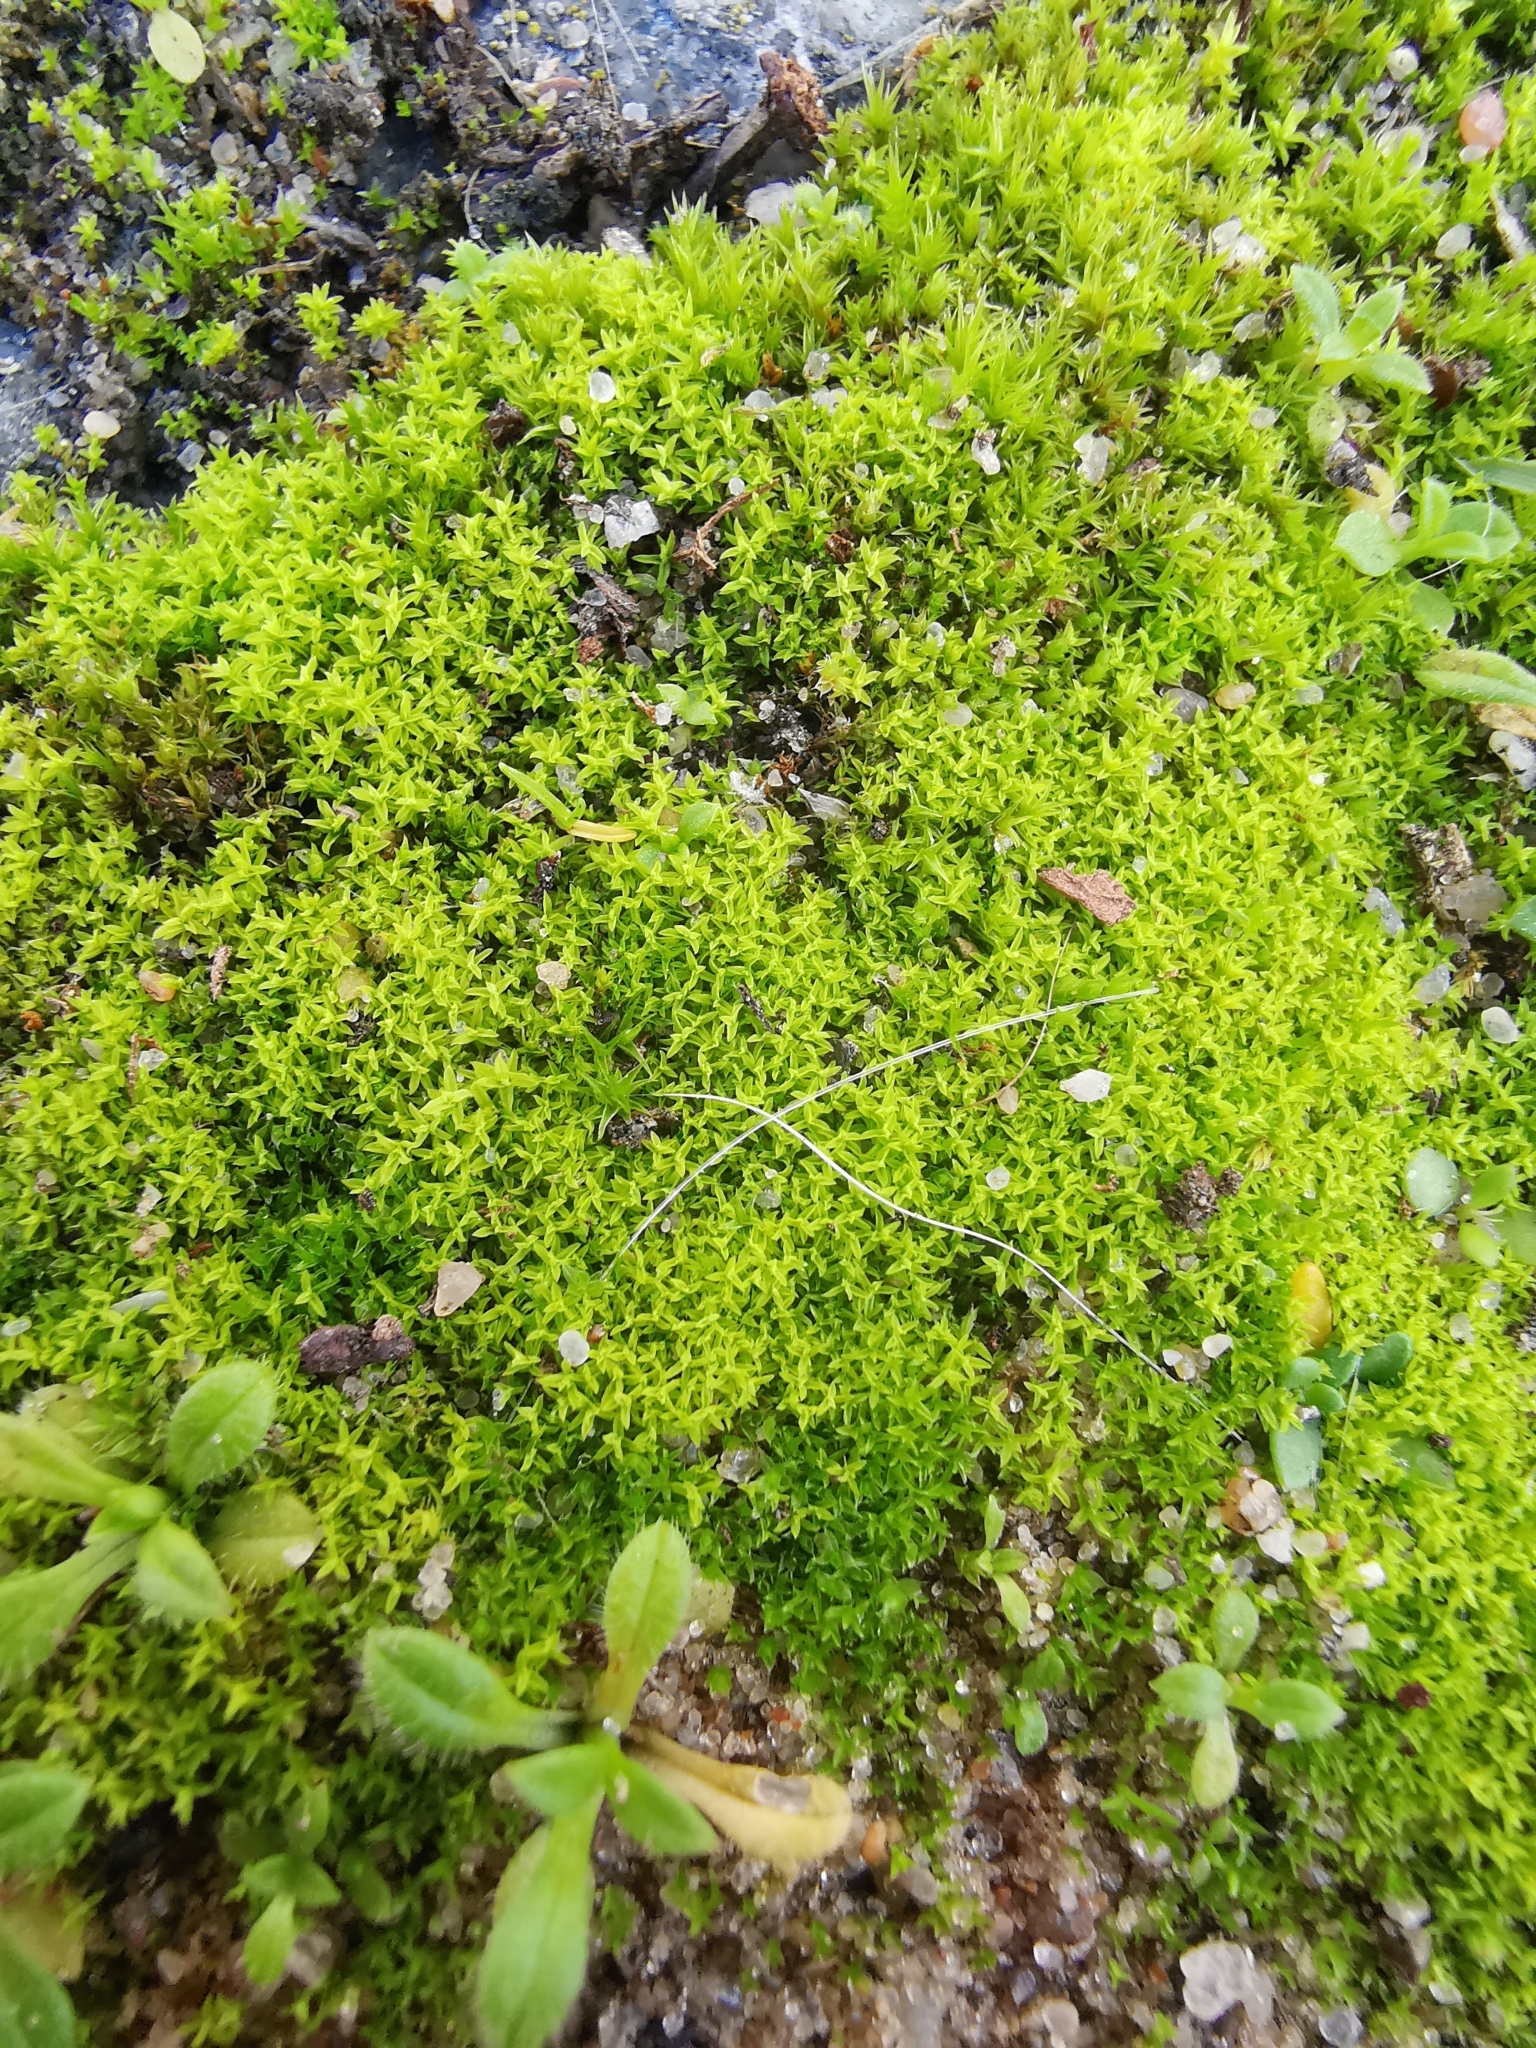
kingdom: Plantae
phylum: Bryophyta
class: Bryopsida
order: Pottiales
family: Pottiaceae
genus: Streblotrichum
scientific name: Streblotrichum convolutum
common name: Lesser bird's-claw beard-moss
